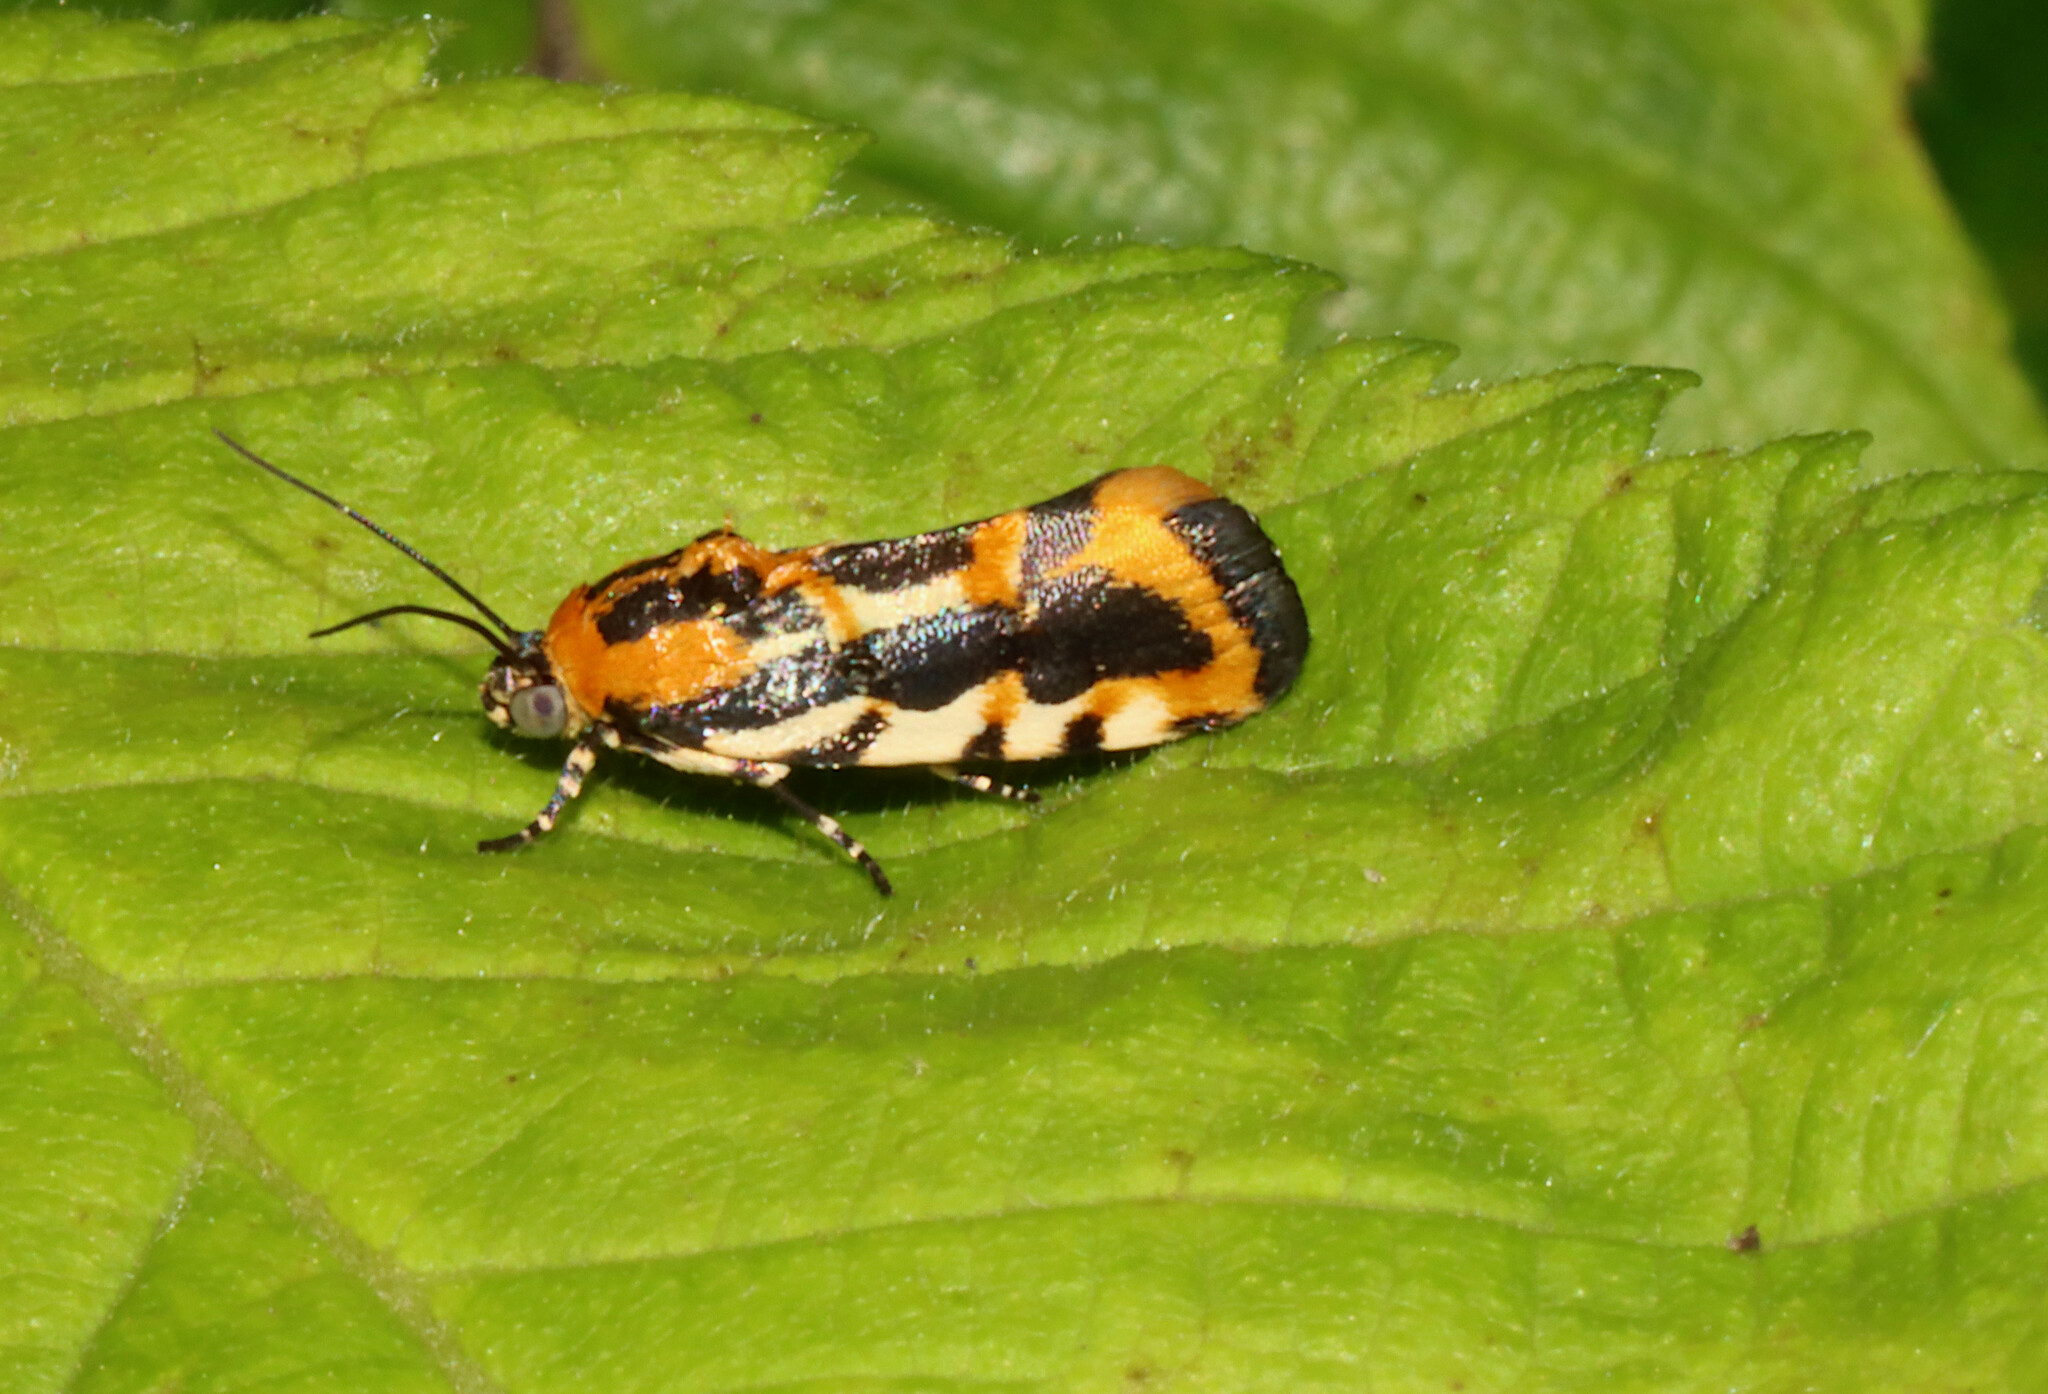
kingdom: Animalia
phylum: Arthropoda
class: Insecta
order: Lepidoptera
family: Noctuidae
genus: Acontia
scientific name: Acontia leo
